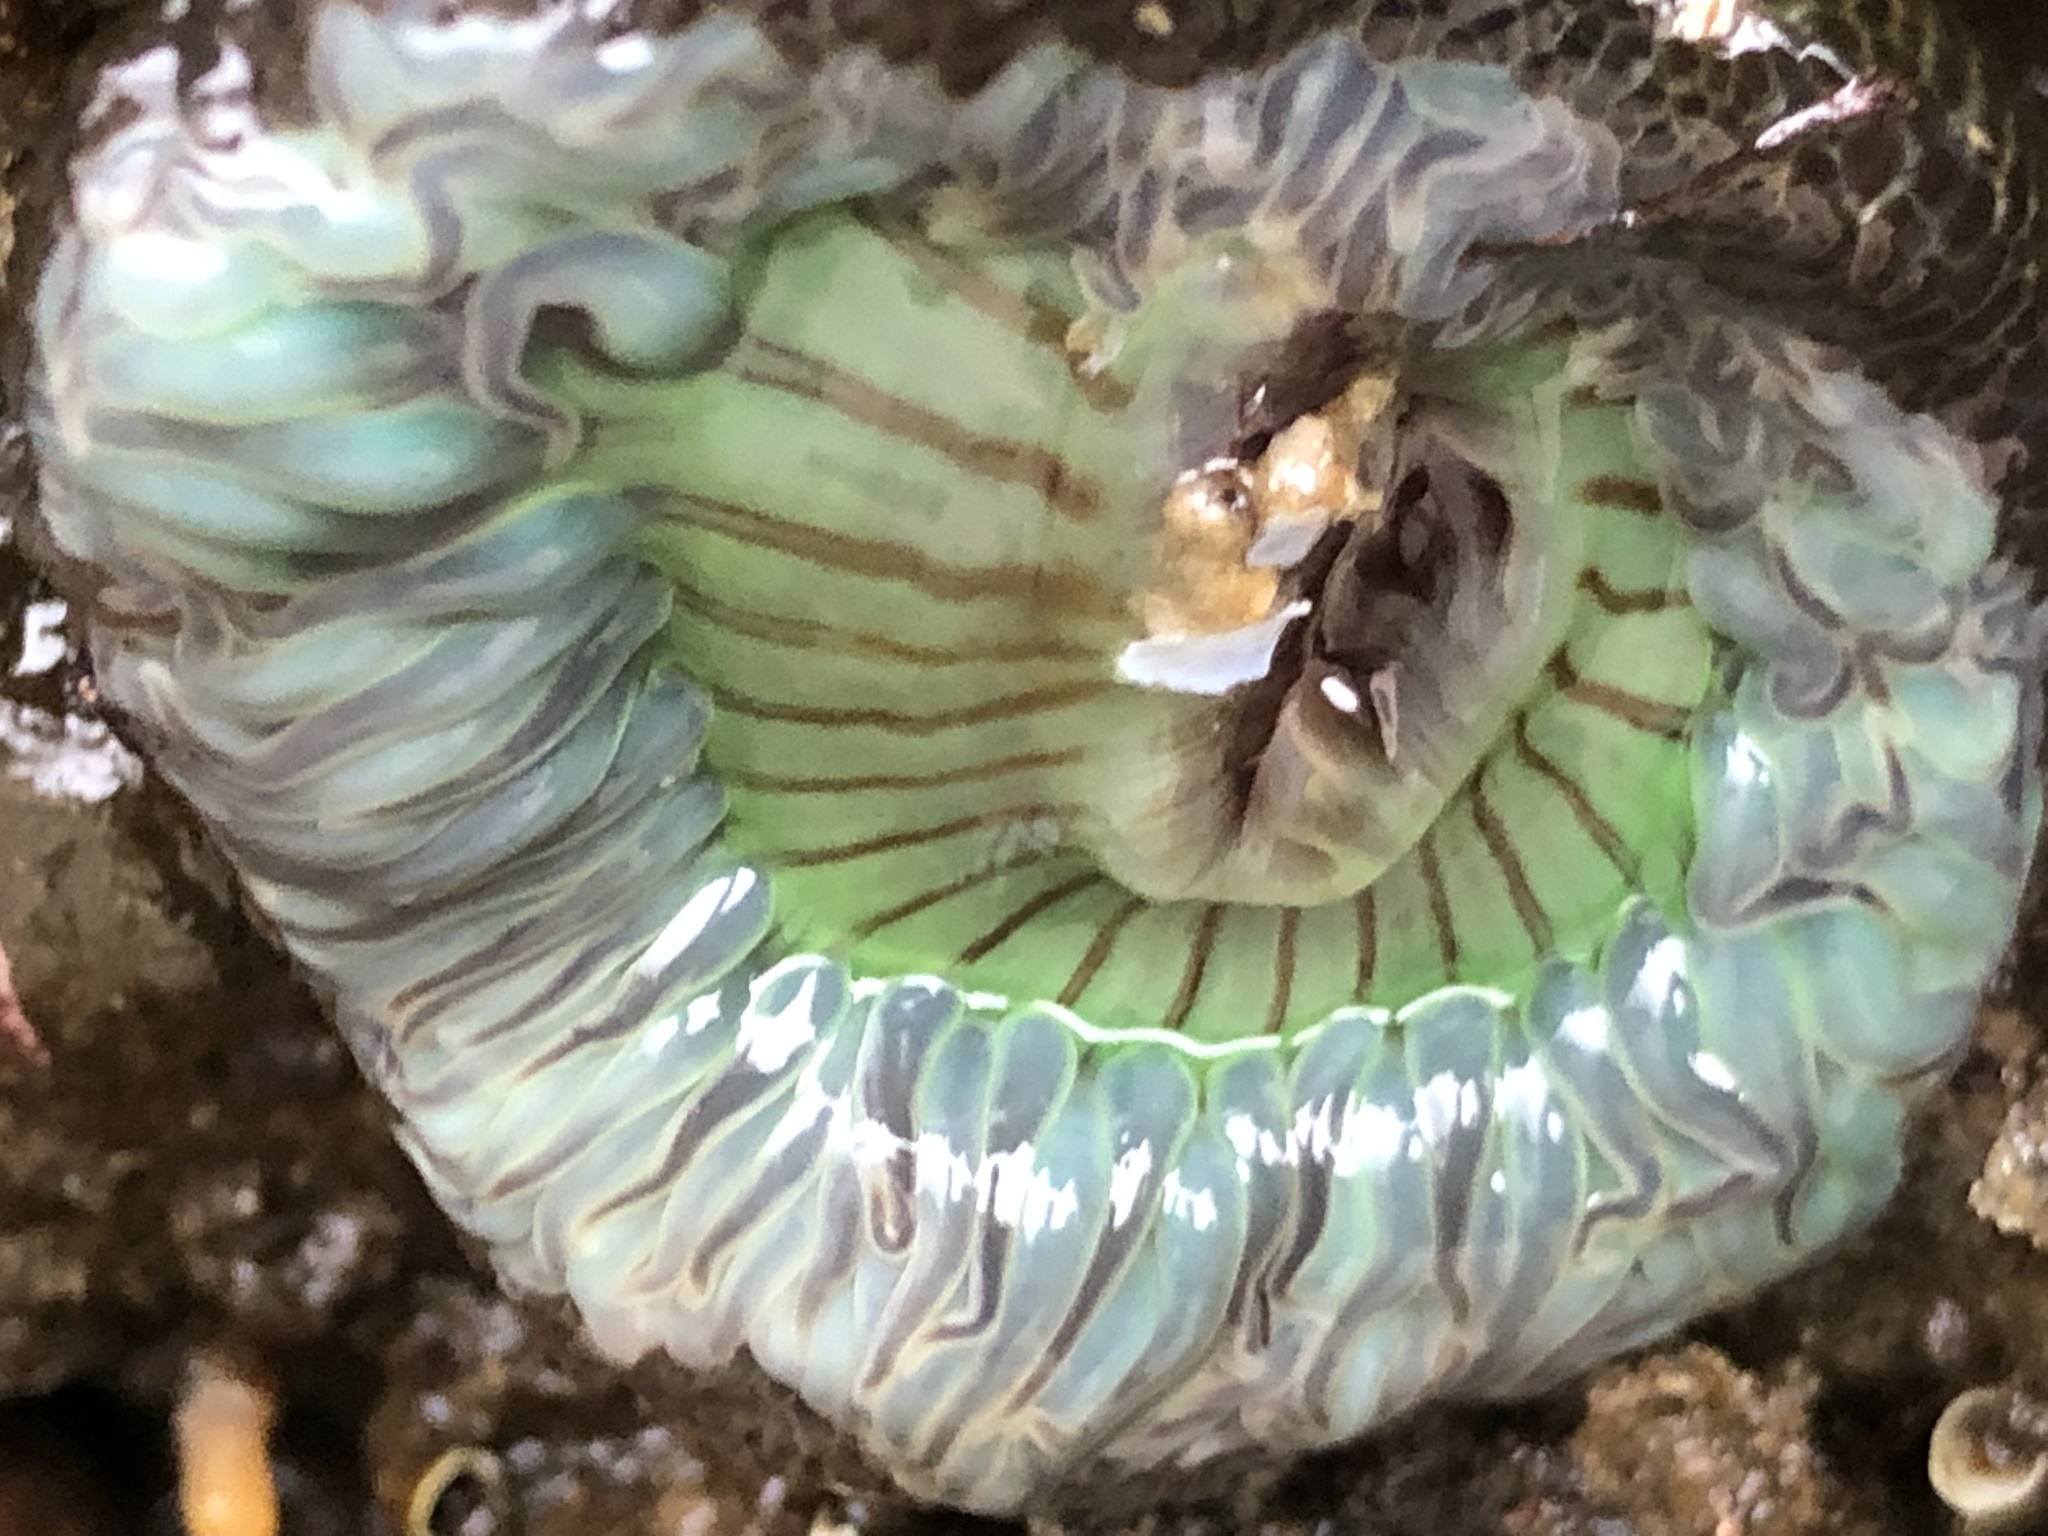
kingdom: Animalia
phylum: Cnidaria
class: Anthozoa
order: Actiniaria
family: Actiniidae
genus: Anthopleura
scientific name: Anthopleura sola
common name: Sun anemone
